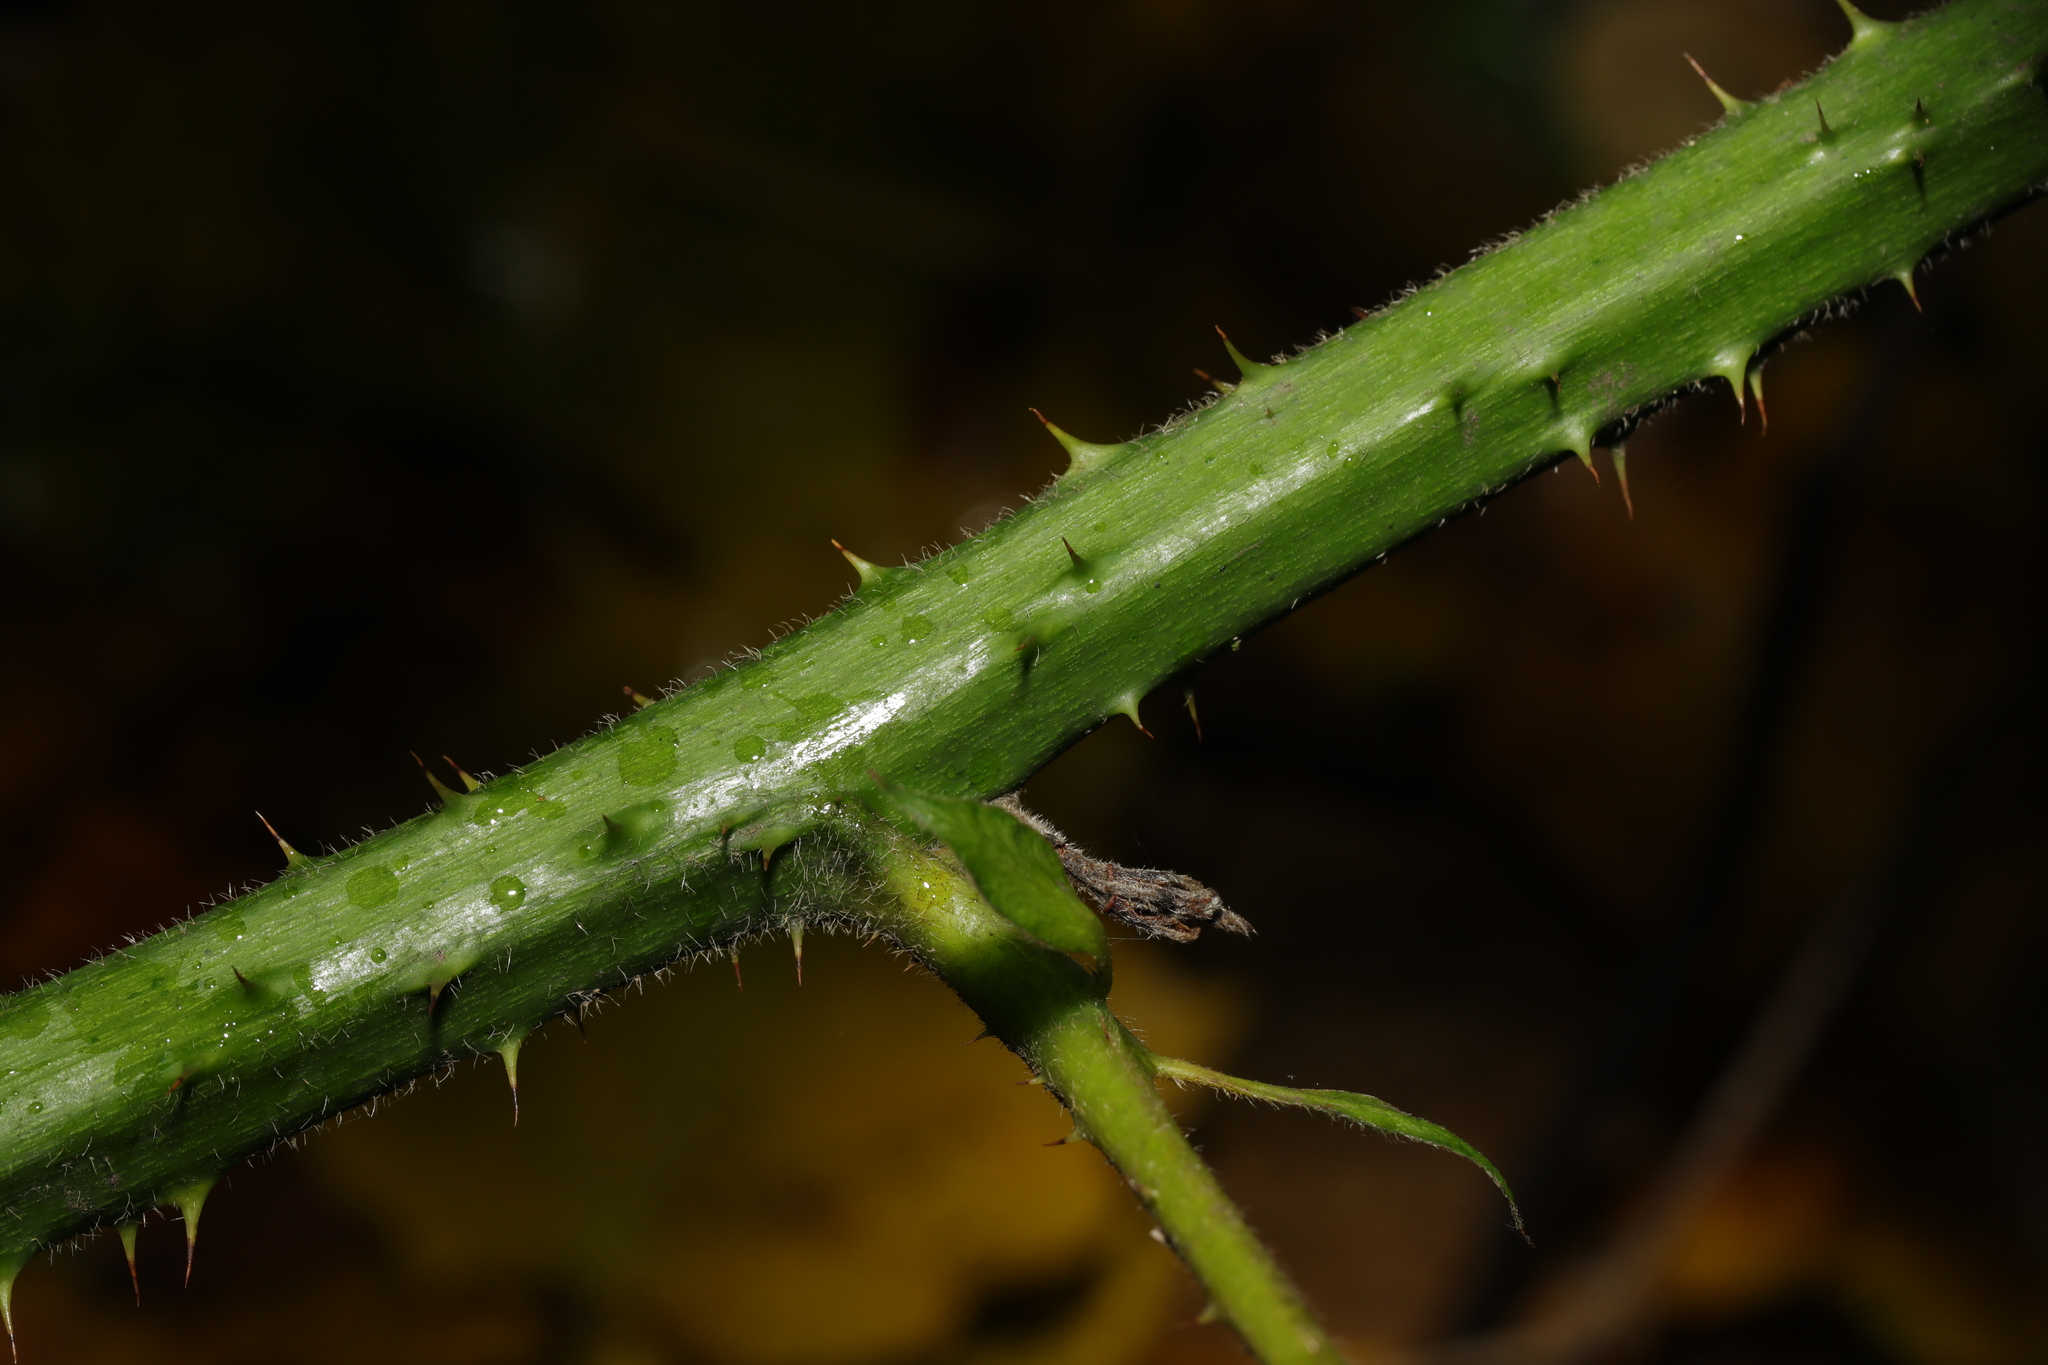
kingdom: Plantae
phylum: Tracheophyta
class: Magnoliopsida
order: Rosales
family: Rosaceae
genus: Rubus
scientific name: Rubus wirralensis
